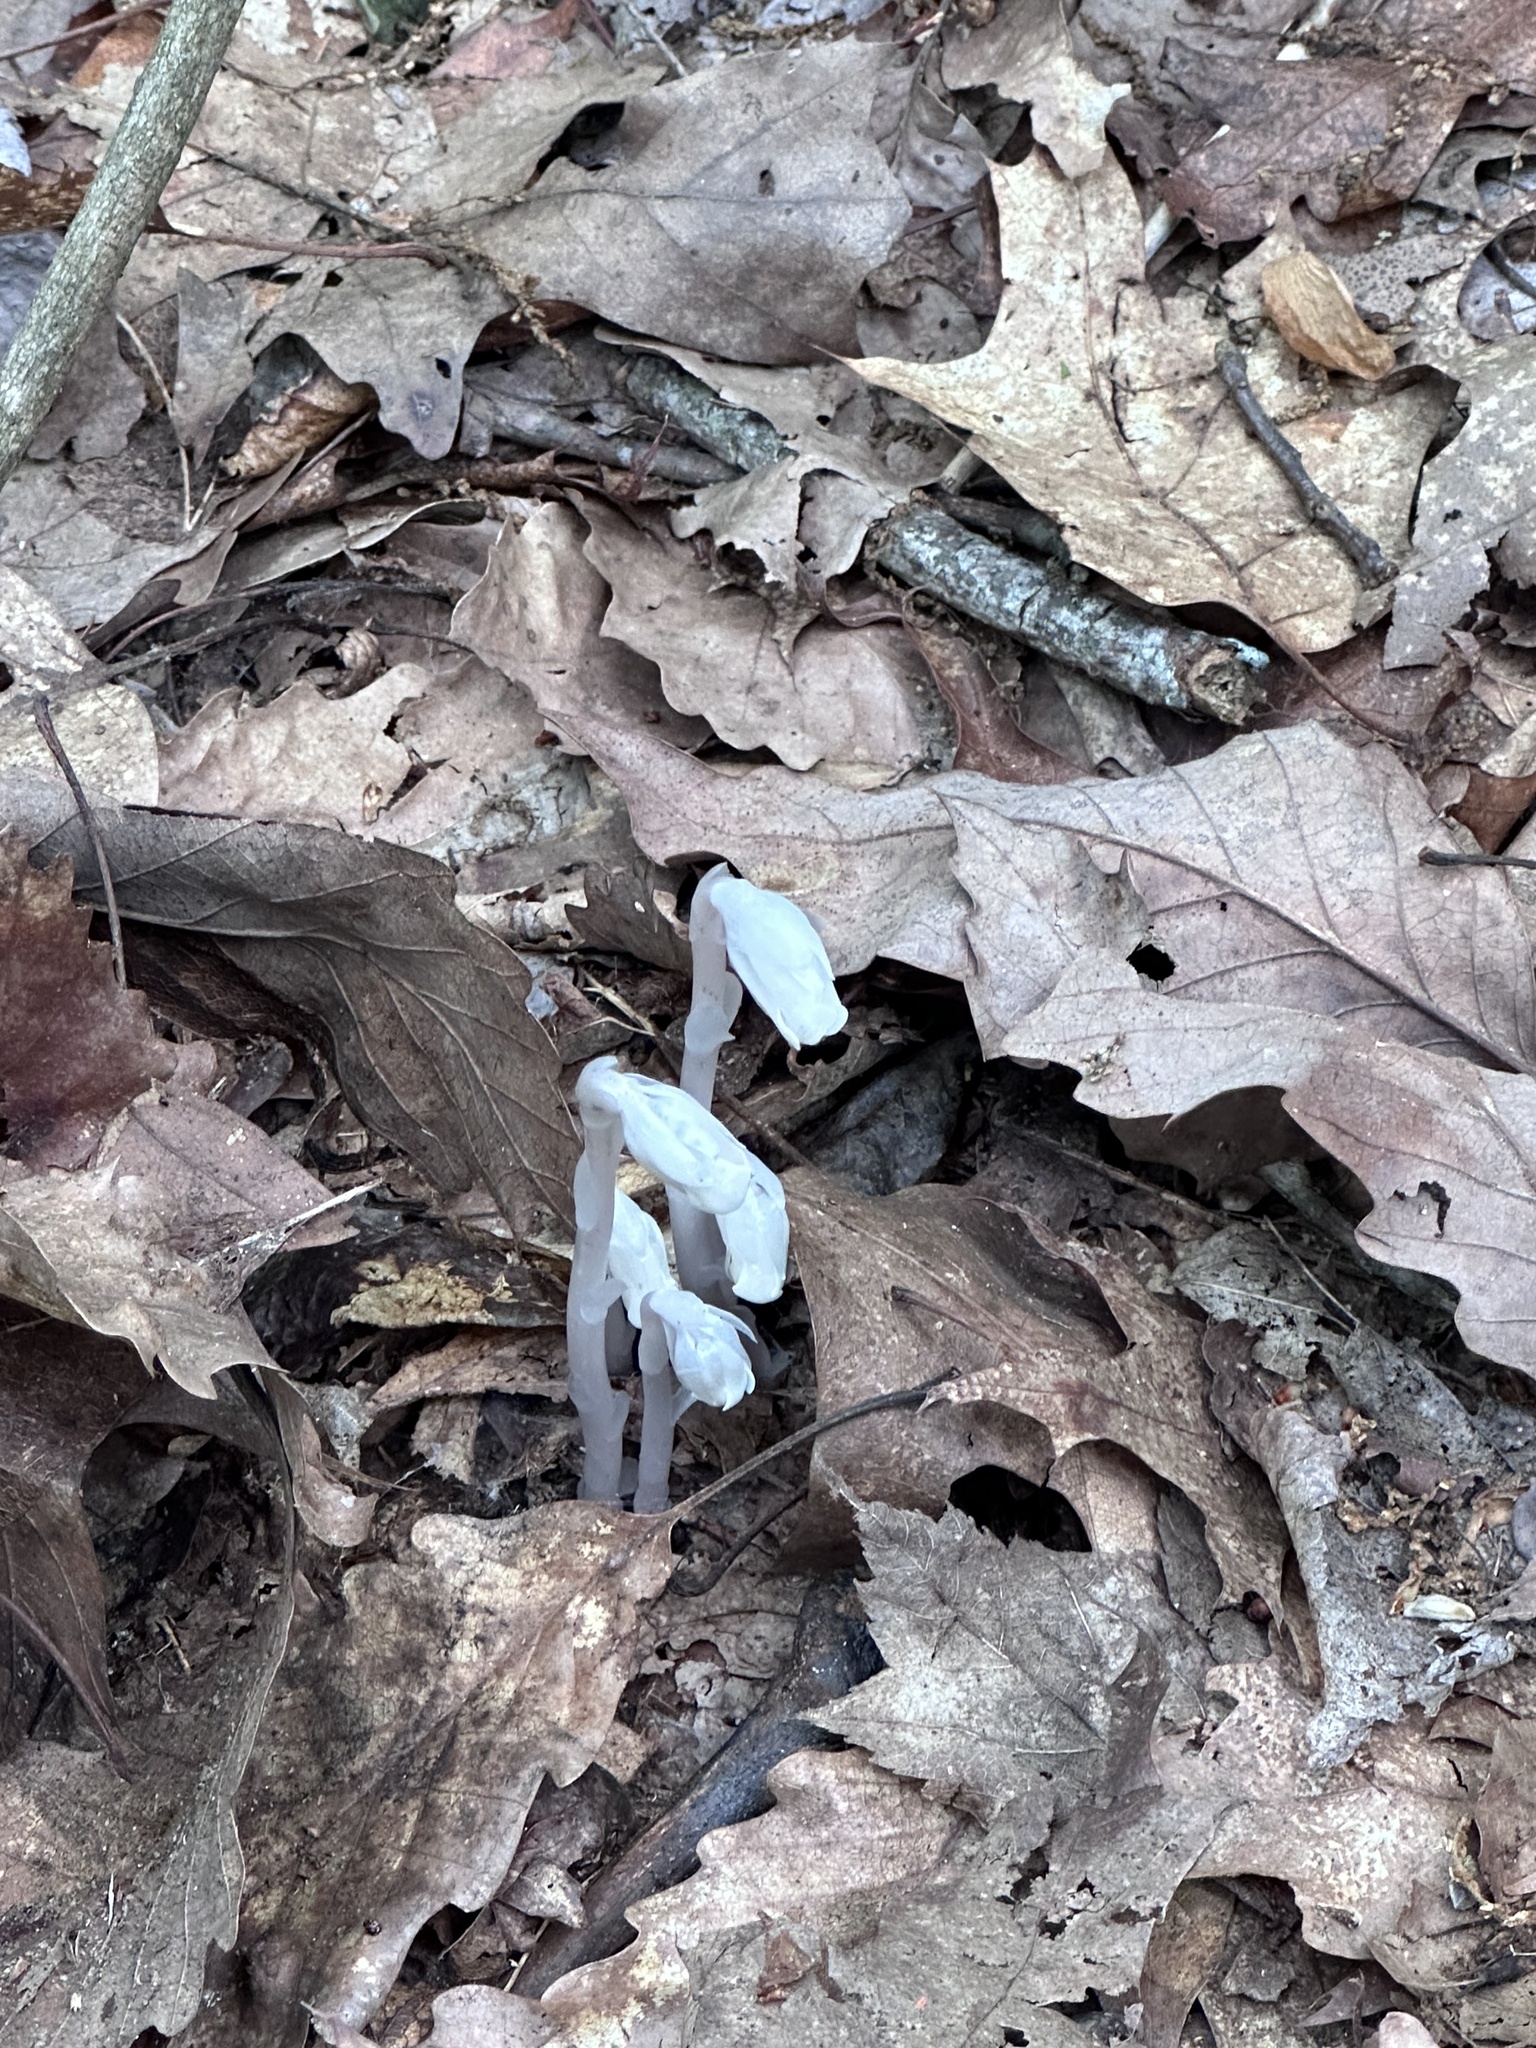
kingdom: Plantae
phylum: Tracheophyta
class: Magnoliopsida
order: Ericales
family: Ericaceae
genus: Monotropa
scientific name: Monotropa uniflora
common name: Convulsion root
